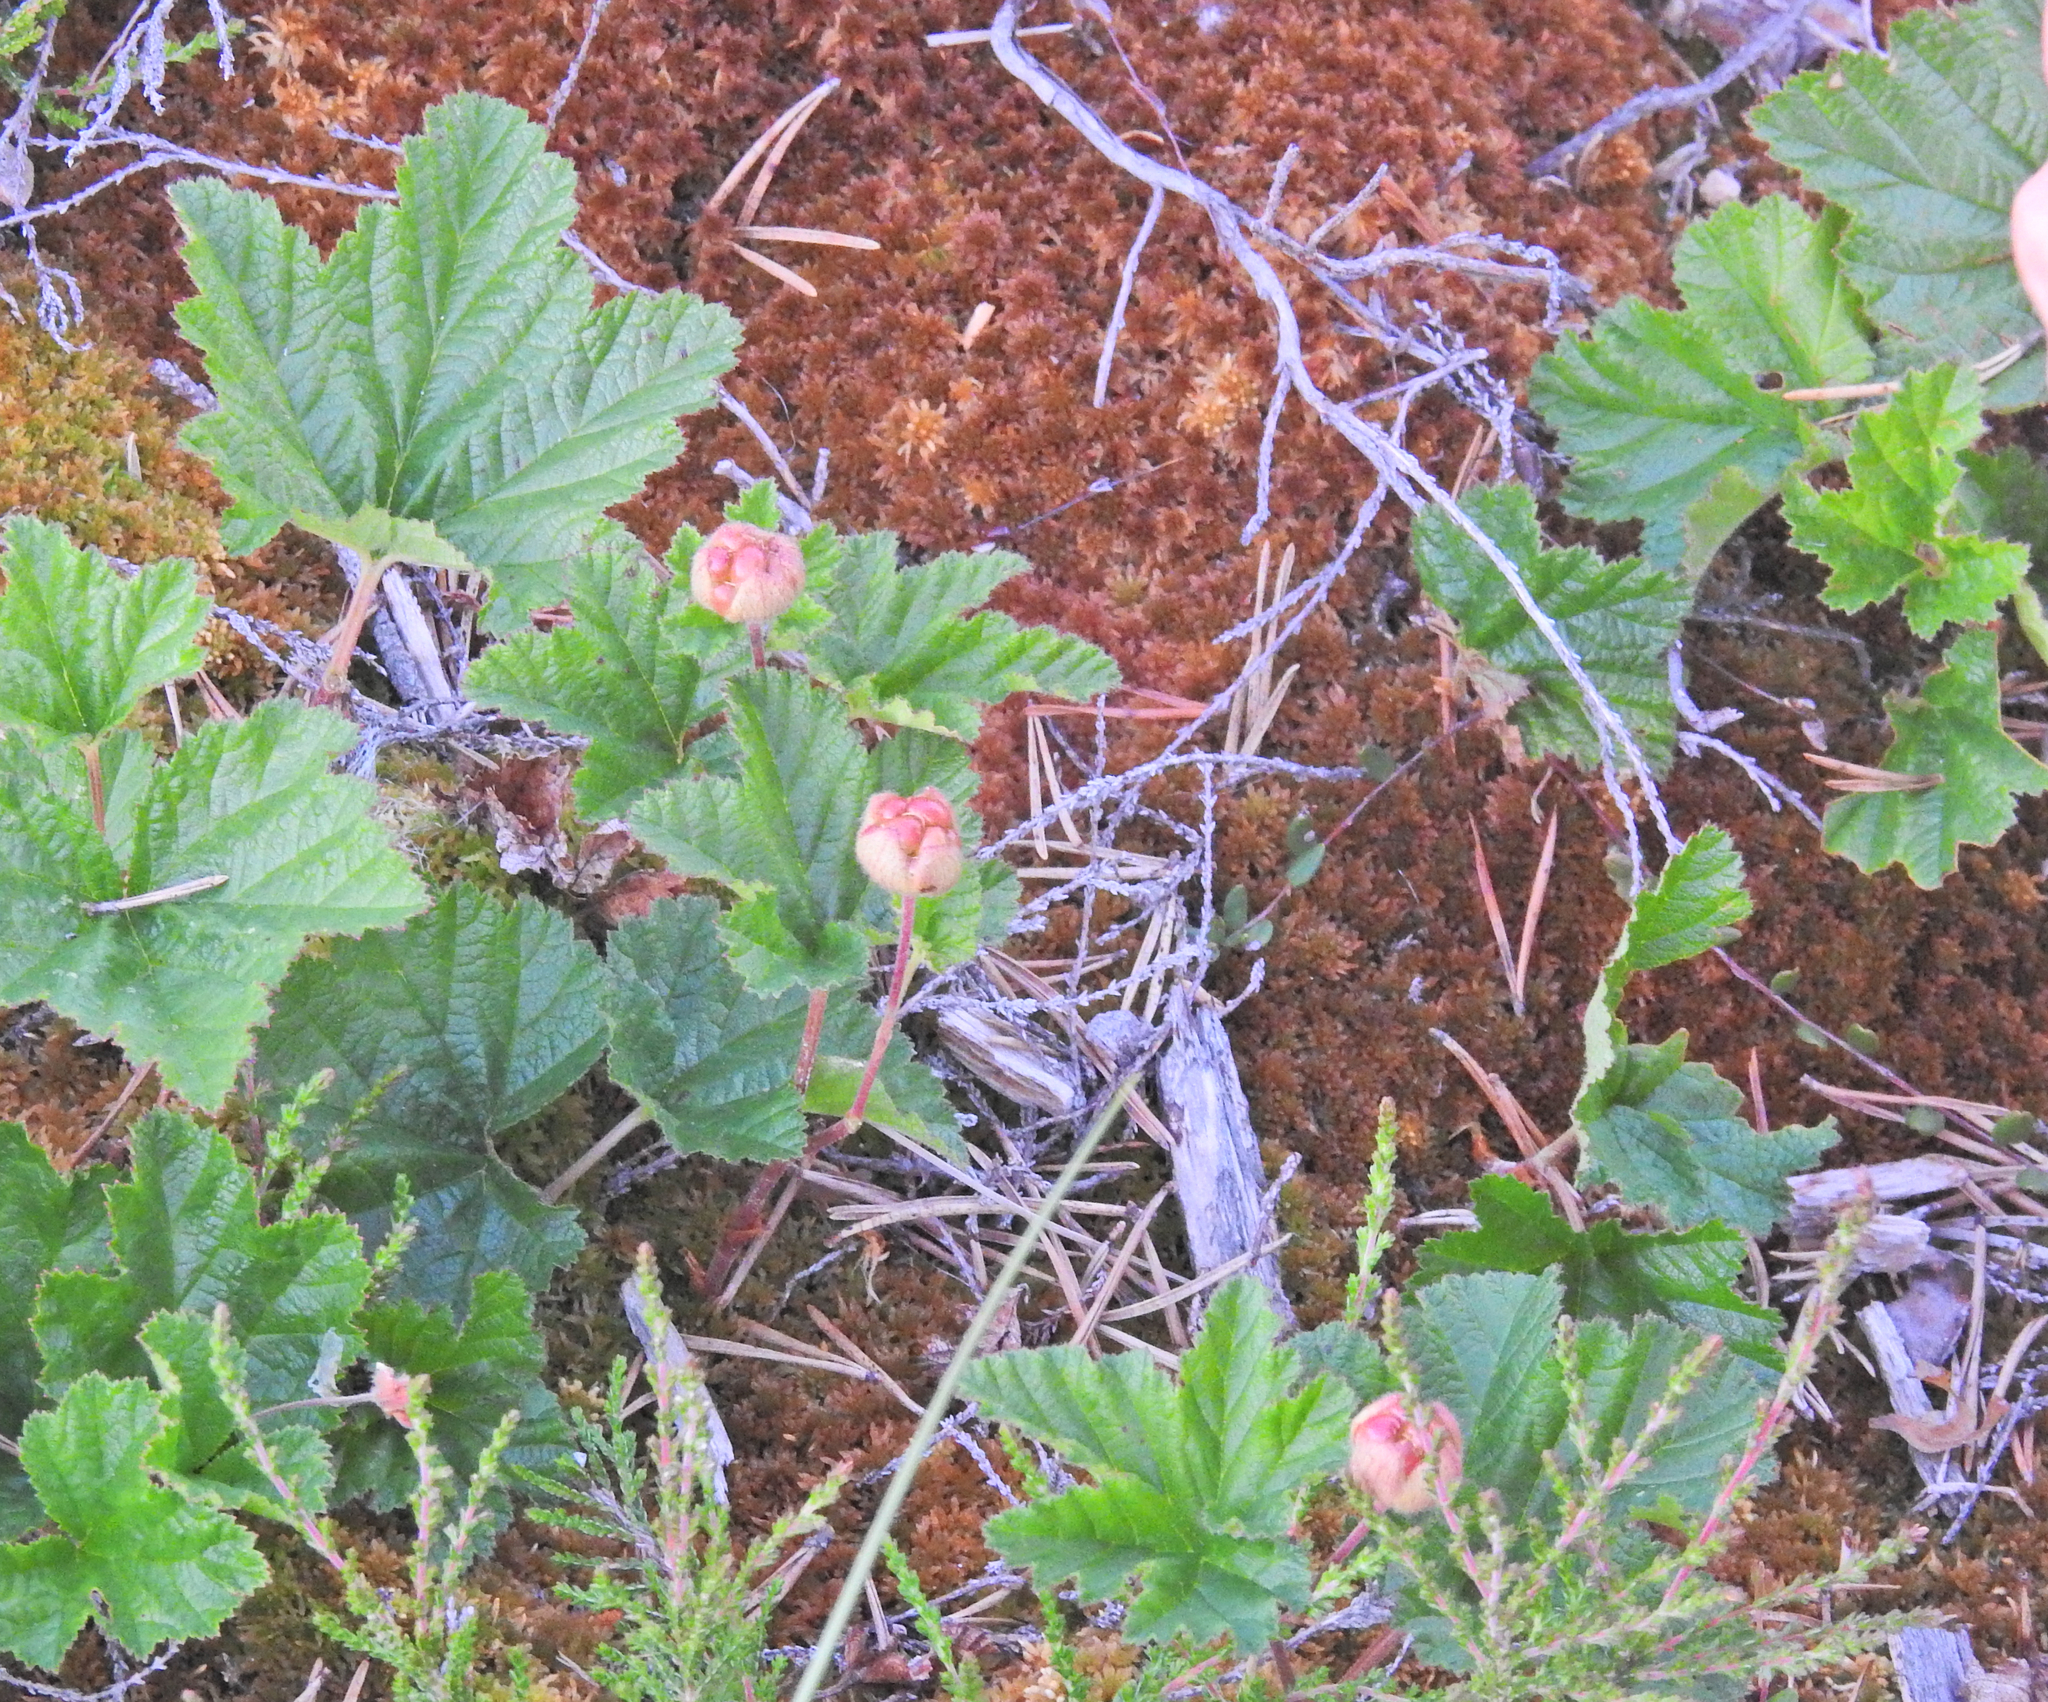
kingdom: Plantae
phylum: Tracheophyta
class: Magnoliopsida
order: Rosales
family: Rosaceae
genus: Rubus
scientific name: Rubus chamaemorus
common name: Cloudberry
